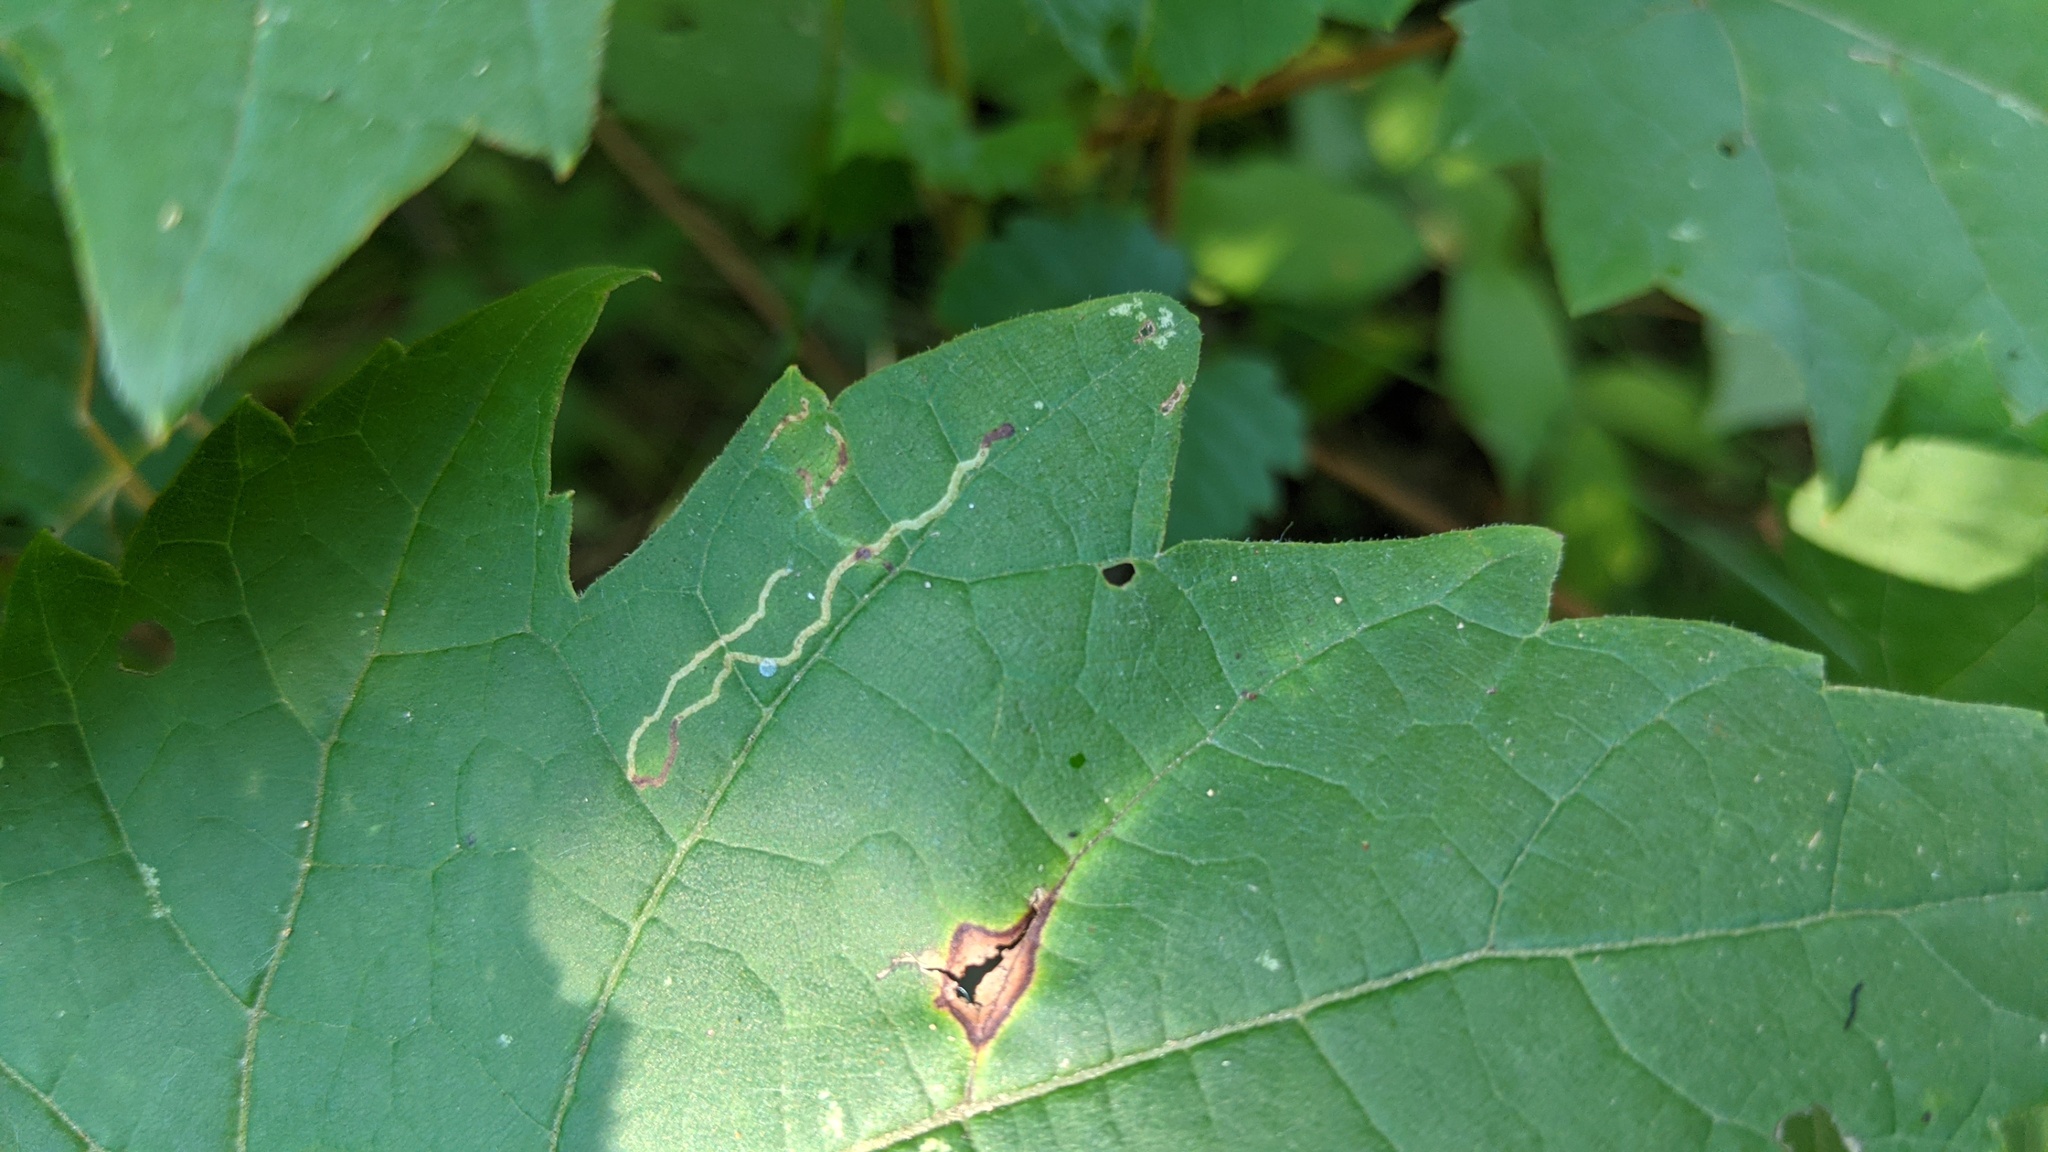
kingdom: Animalia
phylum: Arthropoda
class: Insecta
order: Lepidoptera
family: Gracillariidae
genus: Phyllocnistis
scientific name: Phyllocnistis vitifoliella
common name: Grape leaf-miner moth
